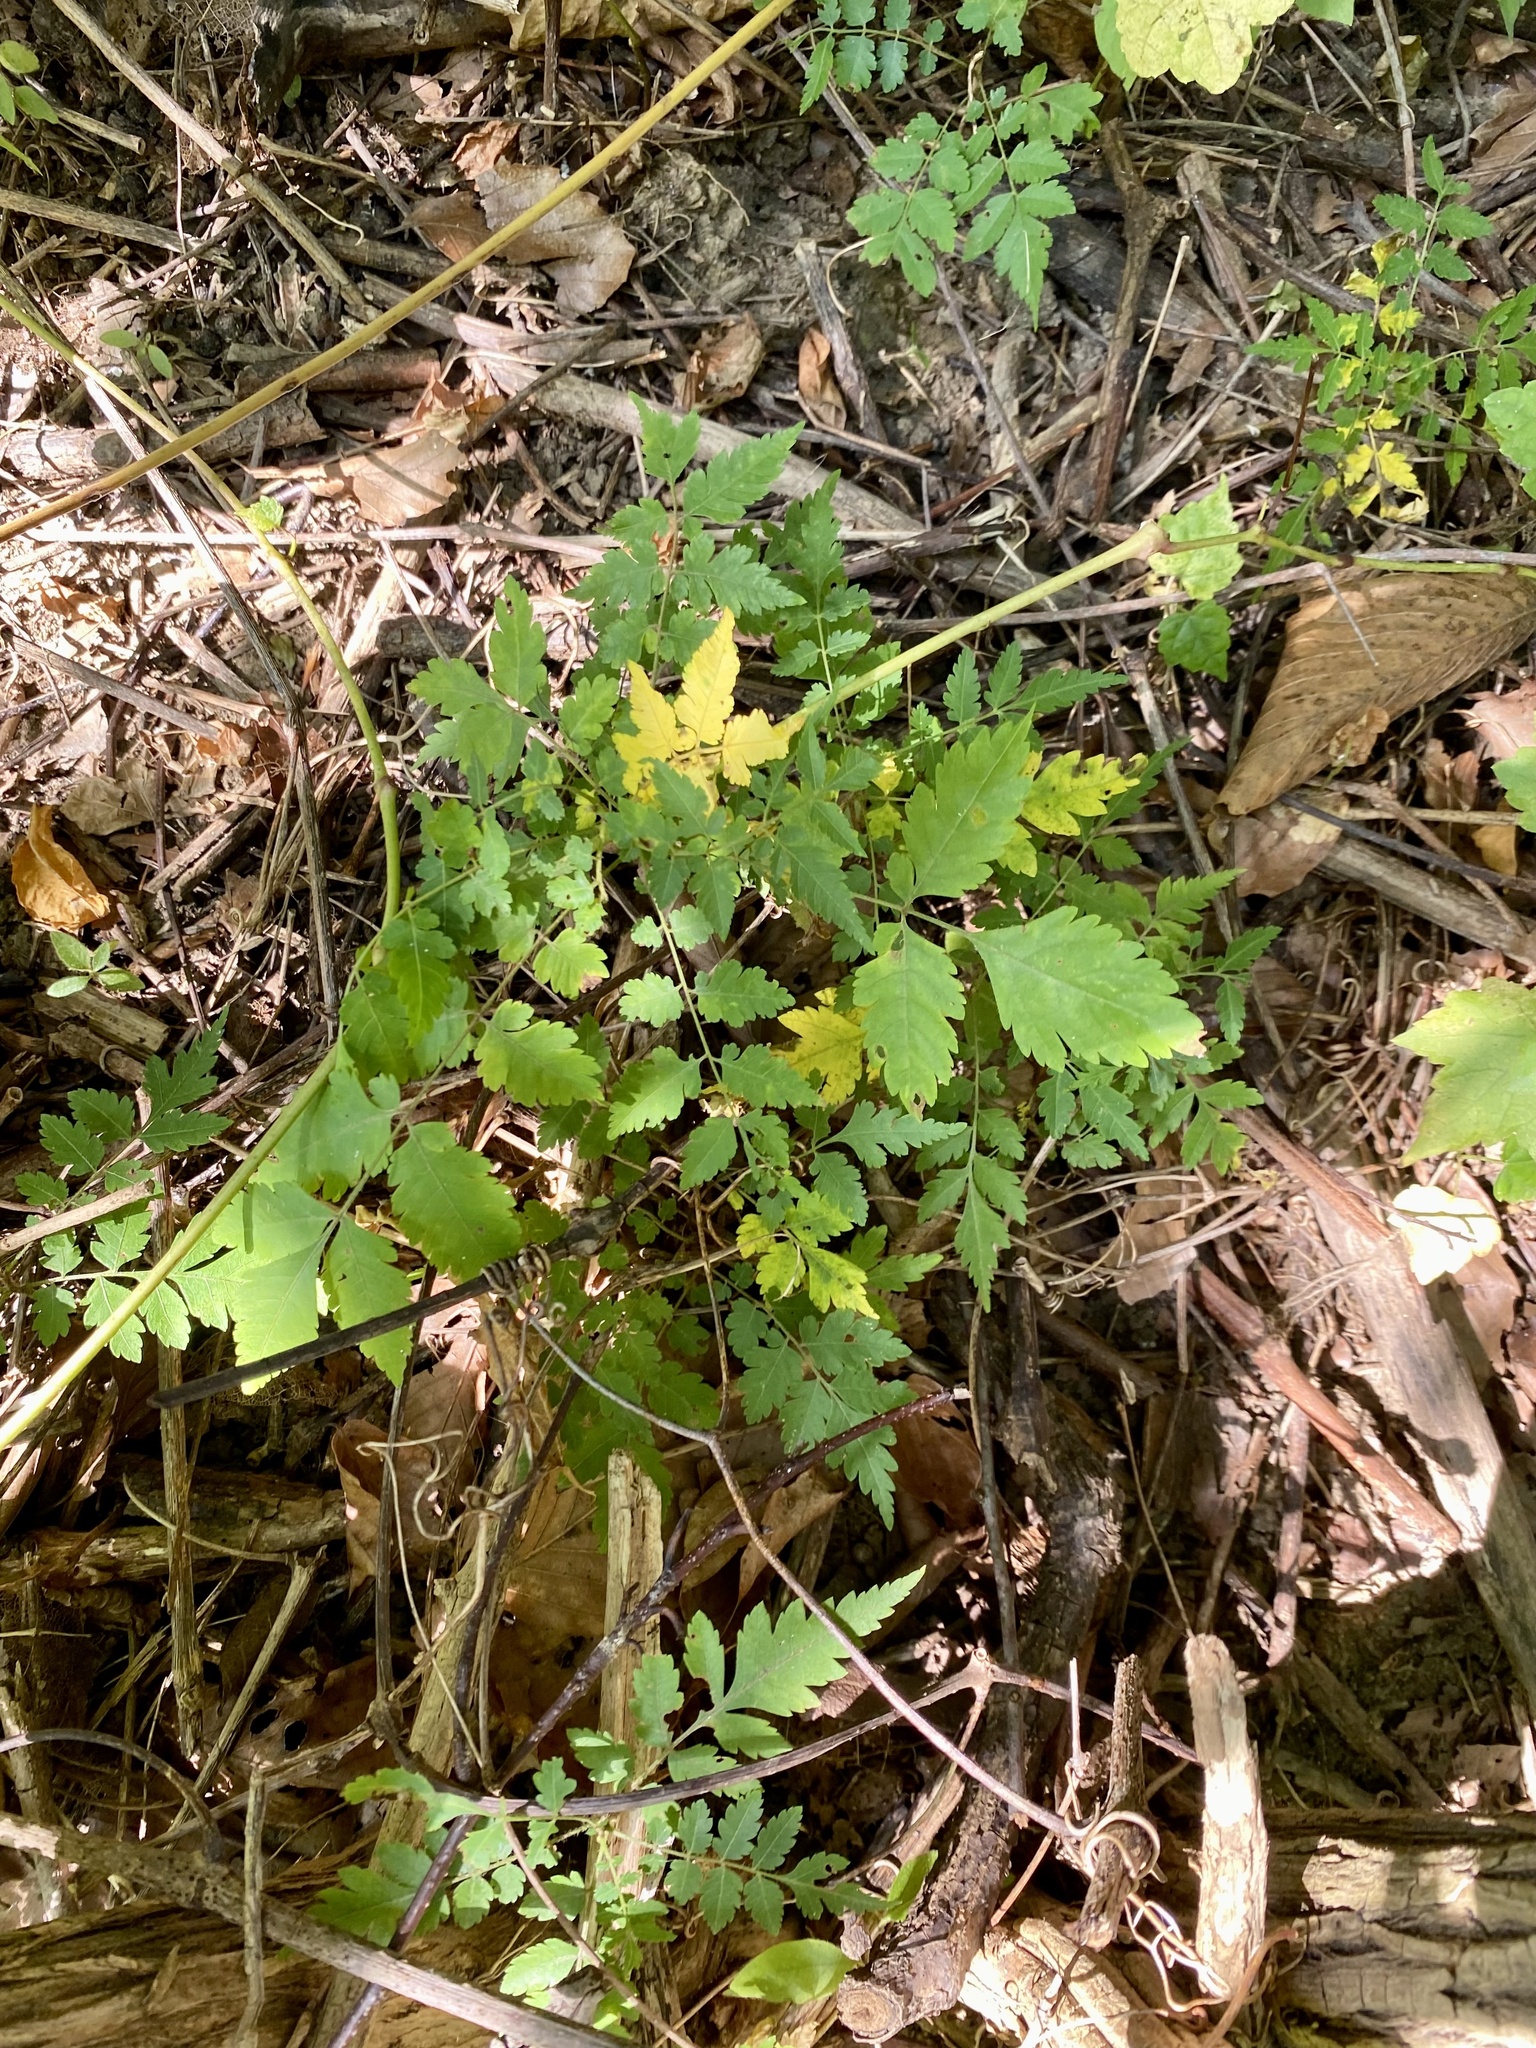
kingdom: Plantae
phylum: Tracheophyta
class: Magnoliopsida
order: Sapindales
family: Sapindaceae
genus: Koelreuteria
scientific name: Koelreuteria paniculata
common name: Pride-of-india
